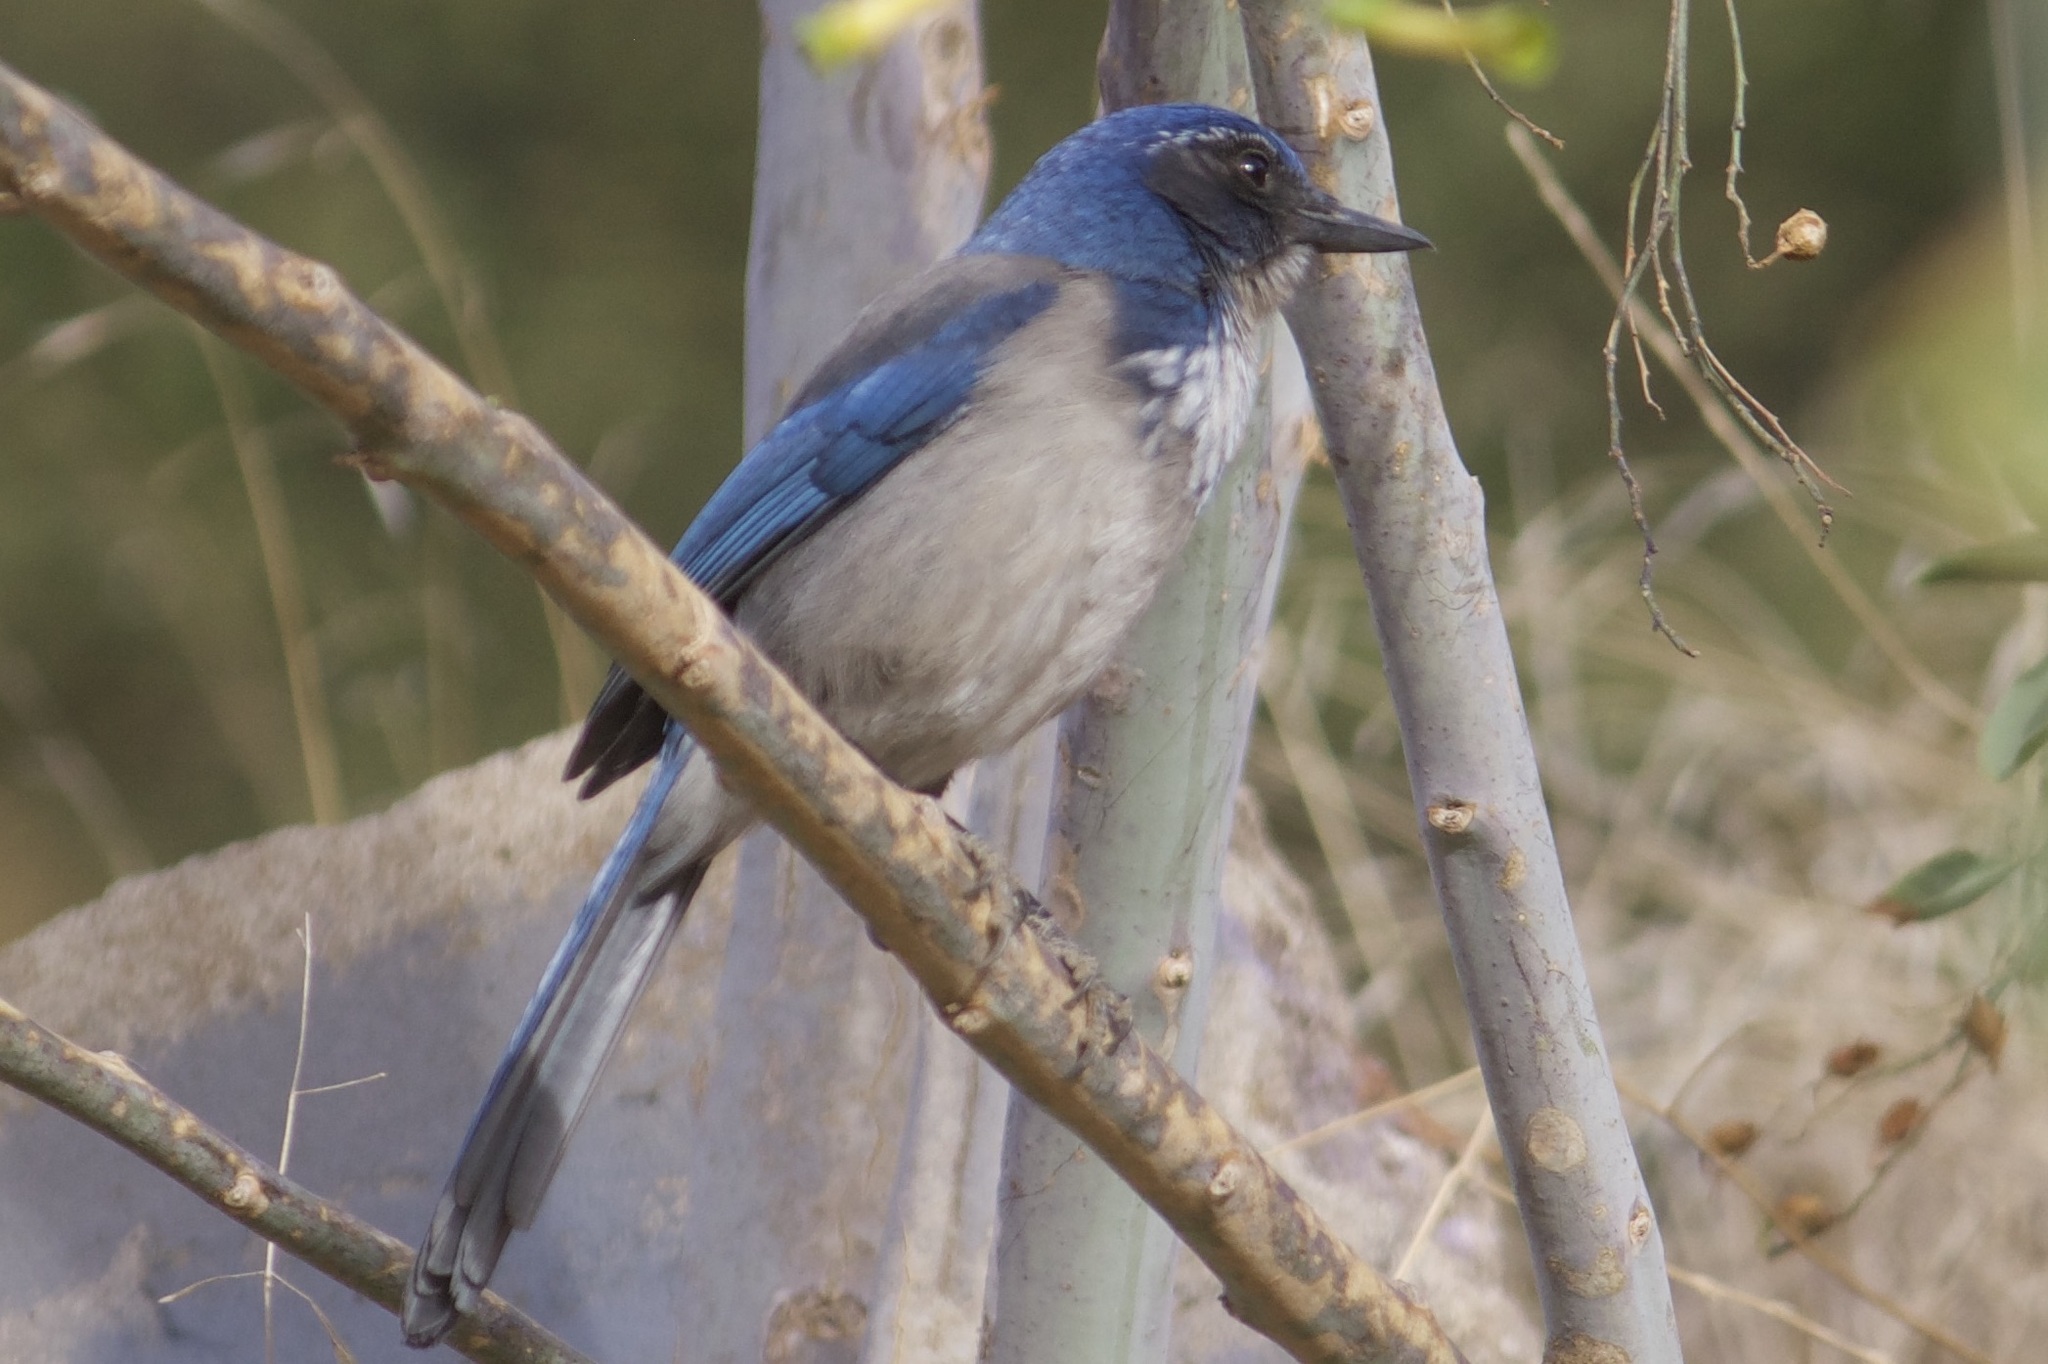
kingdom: Animalia
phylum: Chordata
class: Aves
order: Passeriformes
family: Corvidae
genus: Aphelocoma
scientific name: Aphelocoma californica
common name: California scrub-jay
